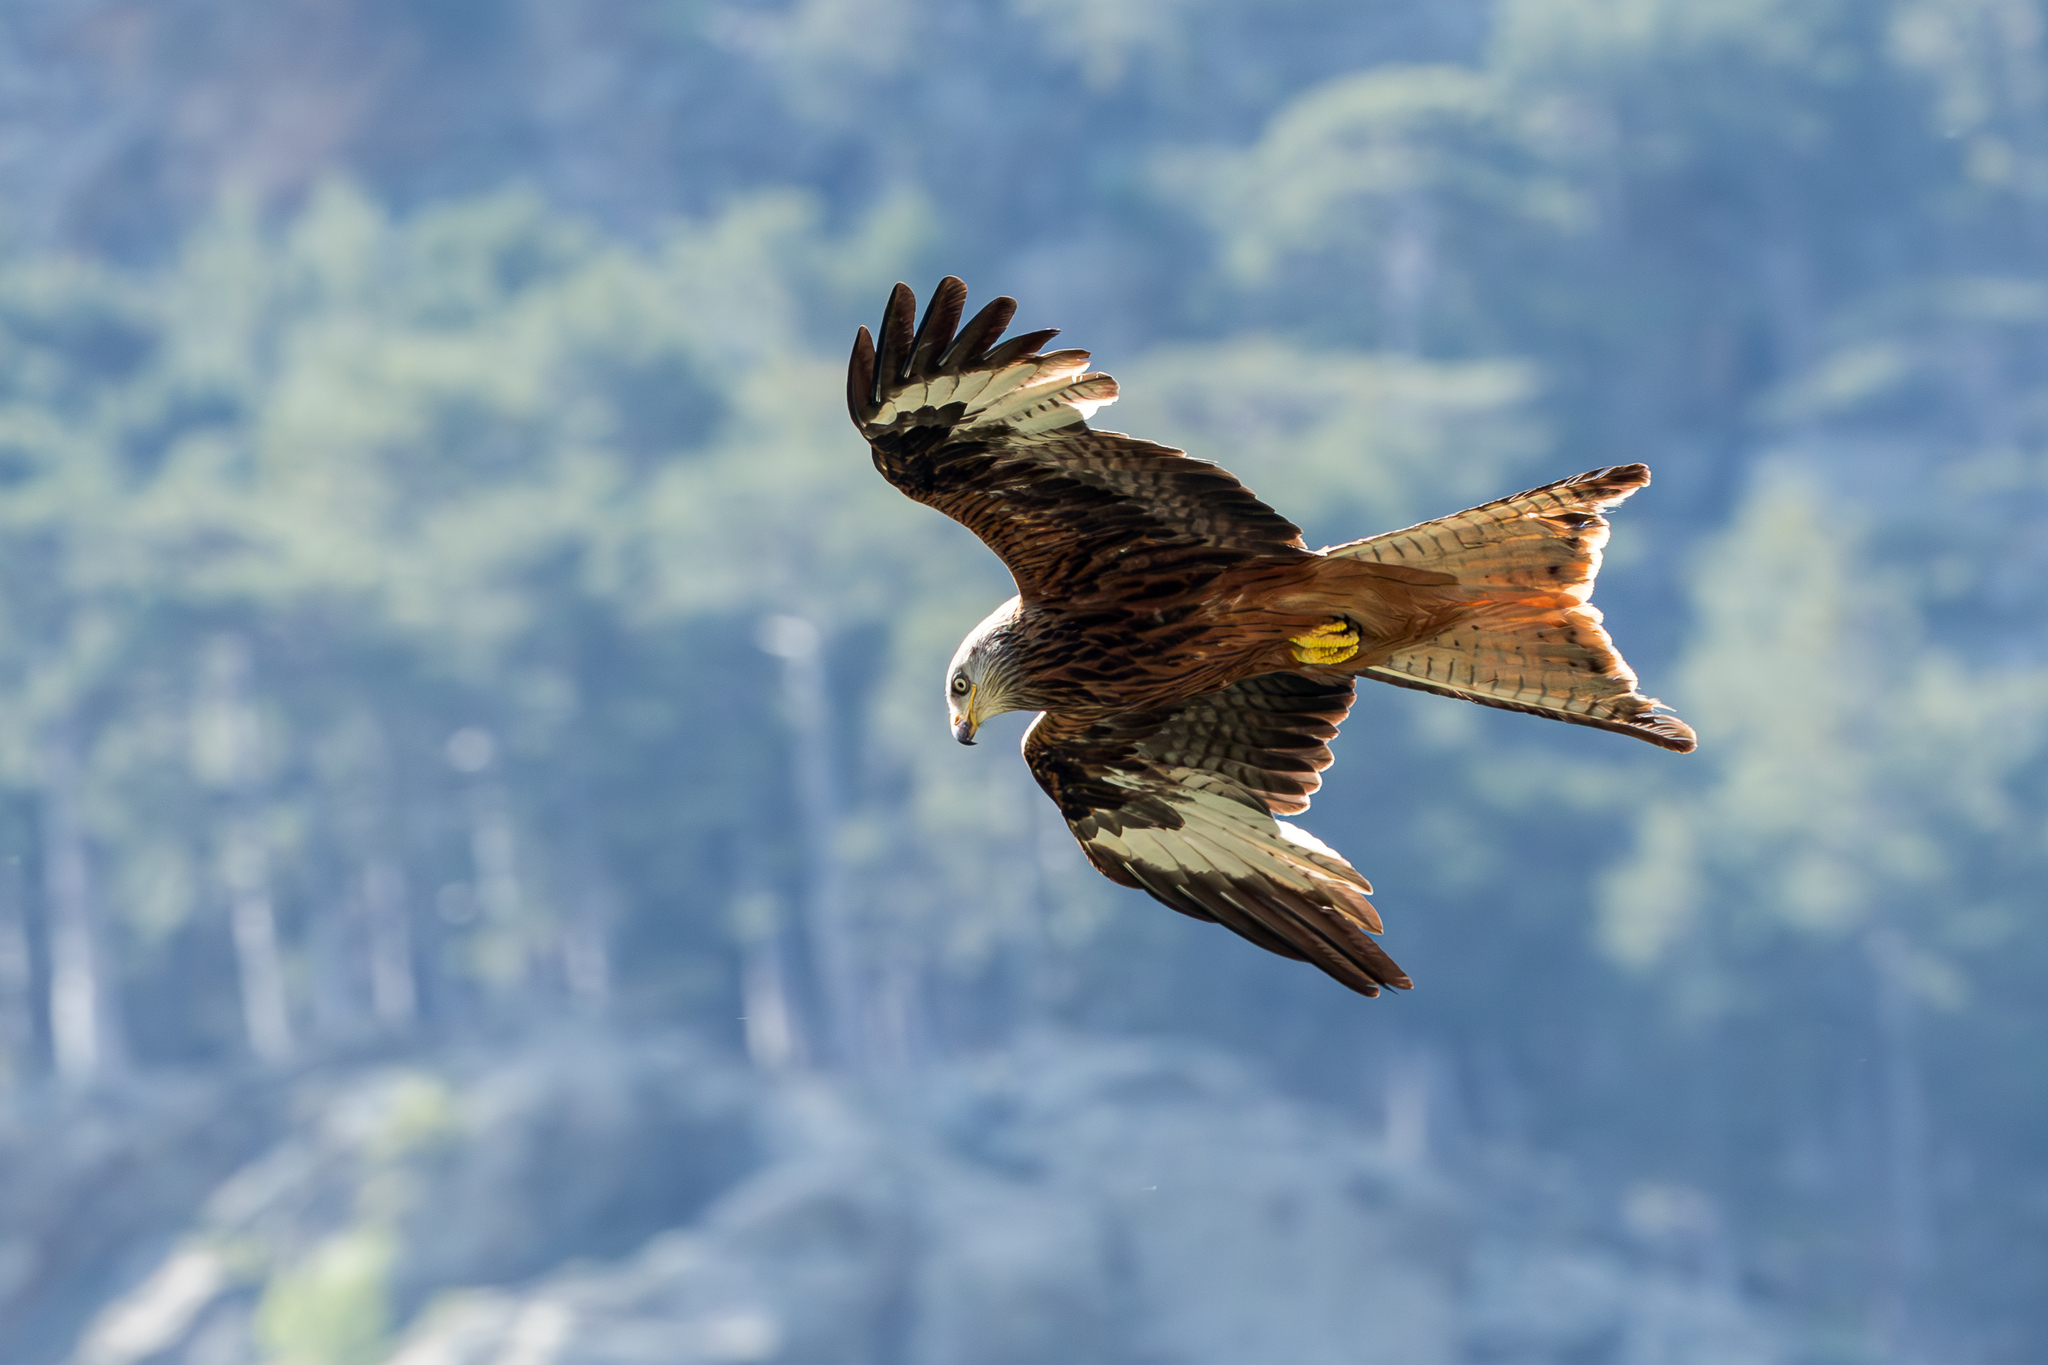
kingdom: Animalia
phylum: Chordata
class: Aves
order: Accipitriformes
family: Accipitridae
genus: Milvus
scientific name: Milvus milvus
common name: Red kite
